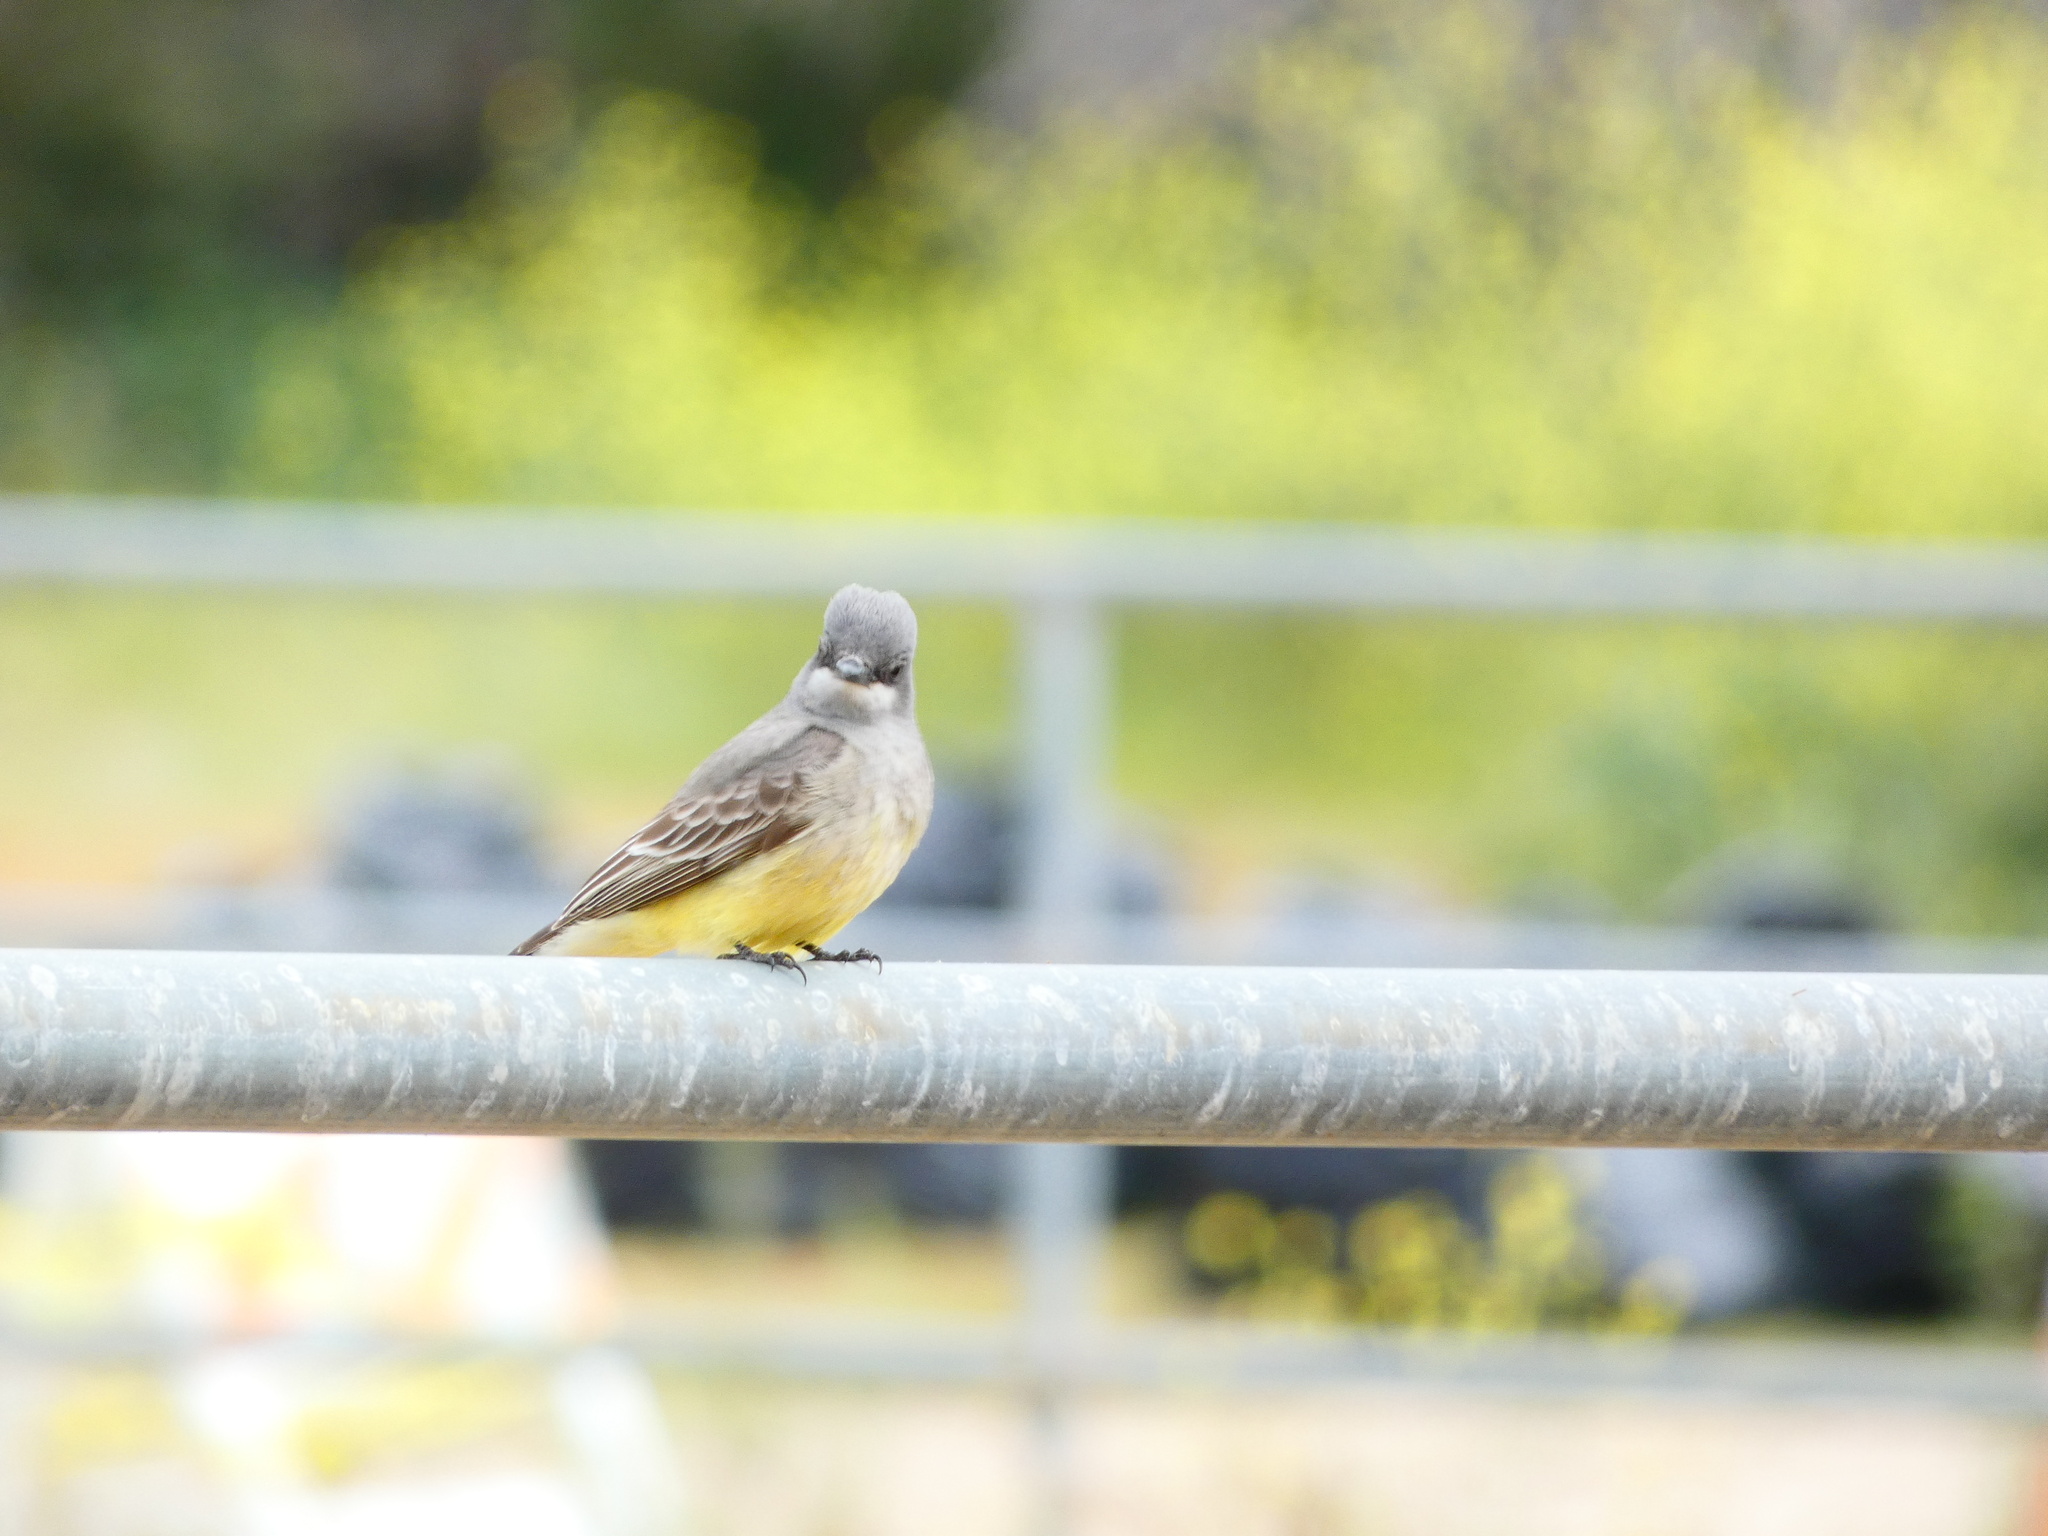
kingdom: Animalia
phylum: Chordata
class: Aves
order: Passeriformes
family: Tyrannidae
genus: Tyrannus
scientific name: Tyrannus vociferans
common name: Cassin's kingbird
